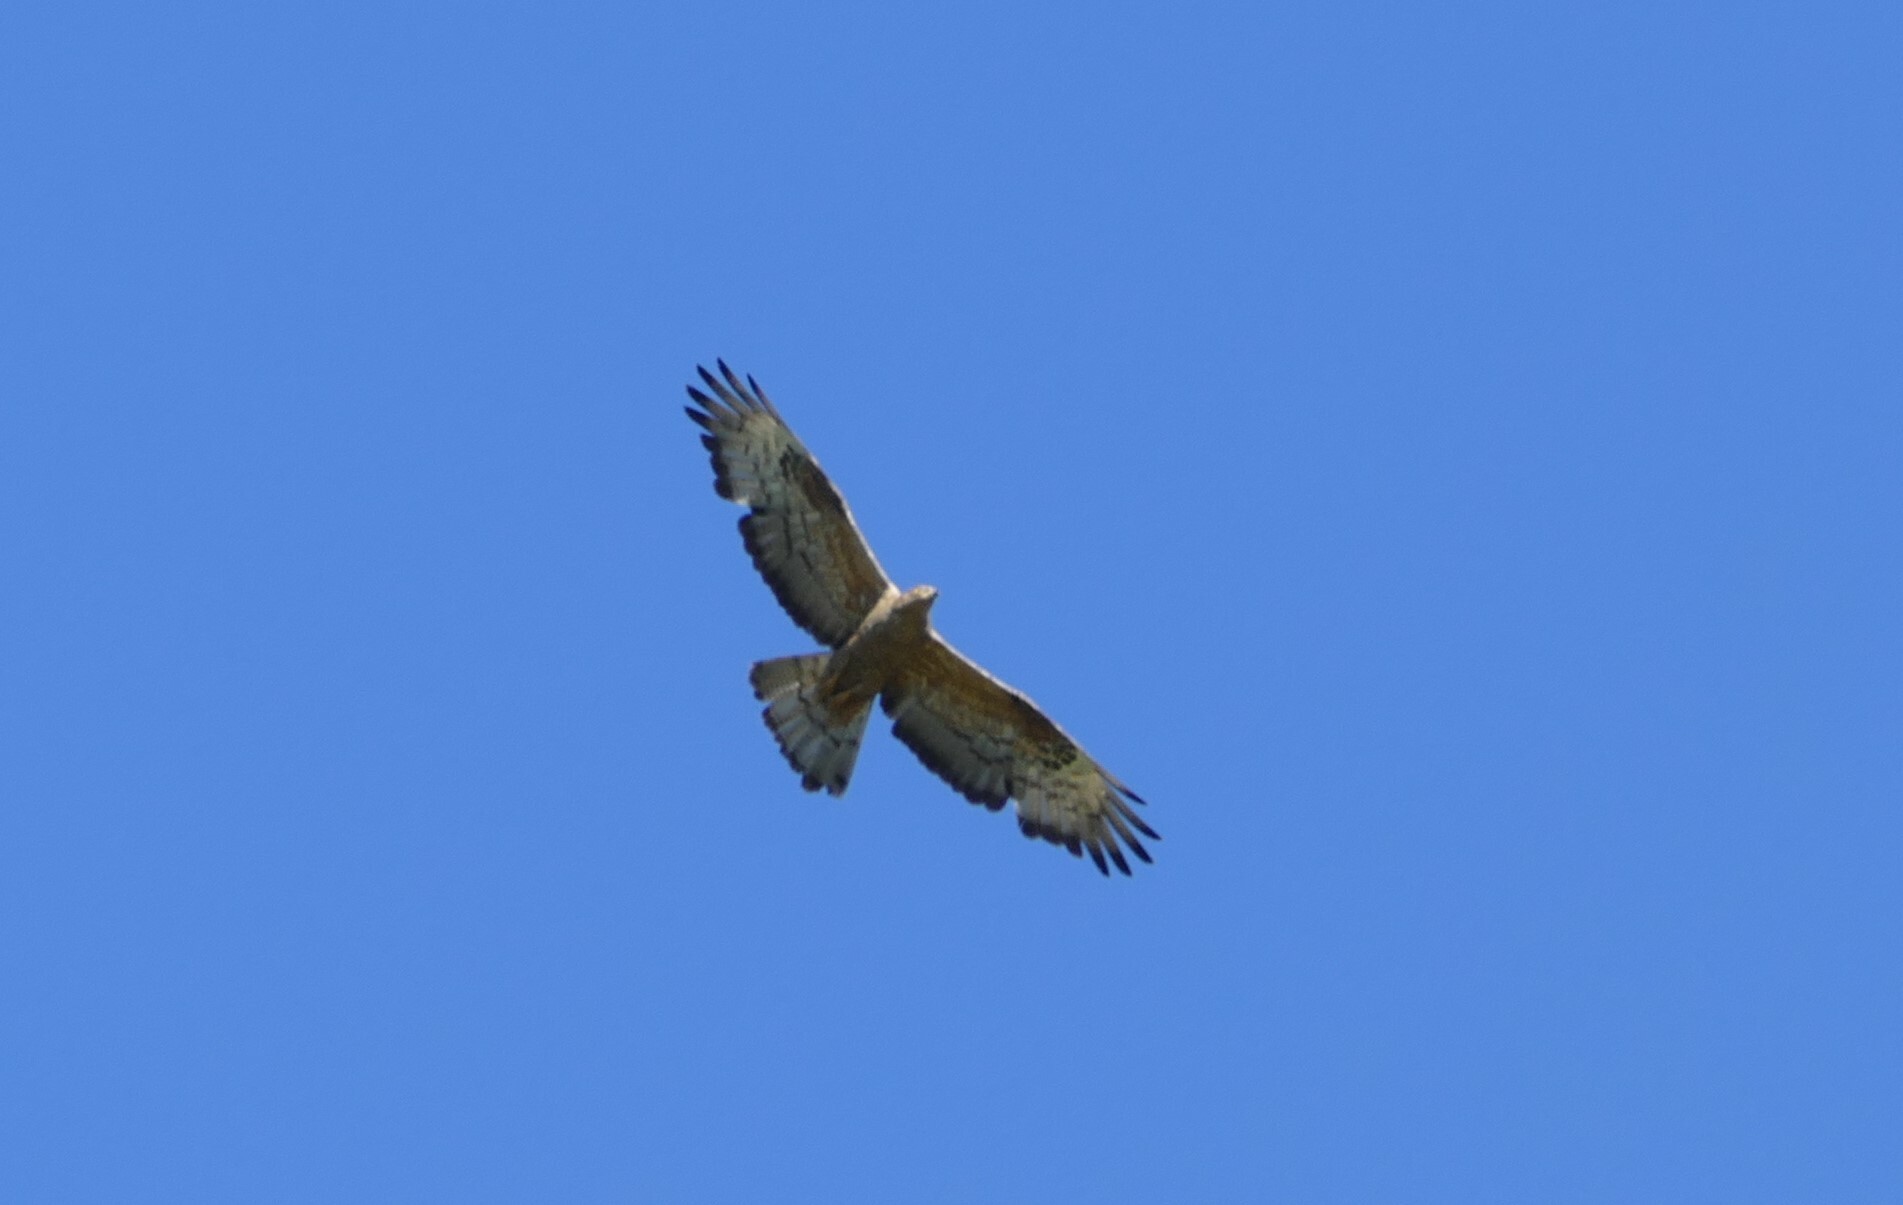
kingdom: Animalia
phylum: Chordata
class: Aves
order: Accipitriformes
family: Accipitridae
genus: Pernis
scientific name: Pernis apivorus
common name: European honey buzzard
